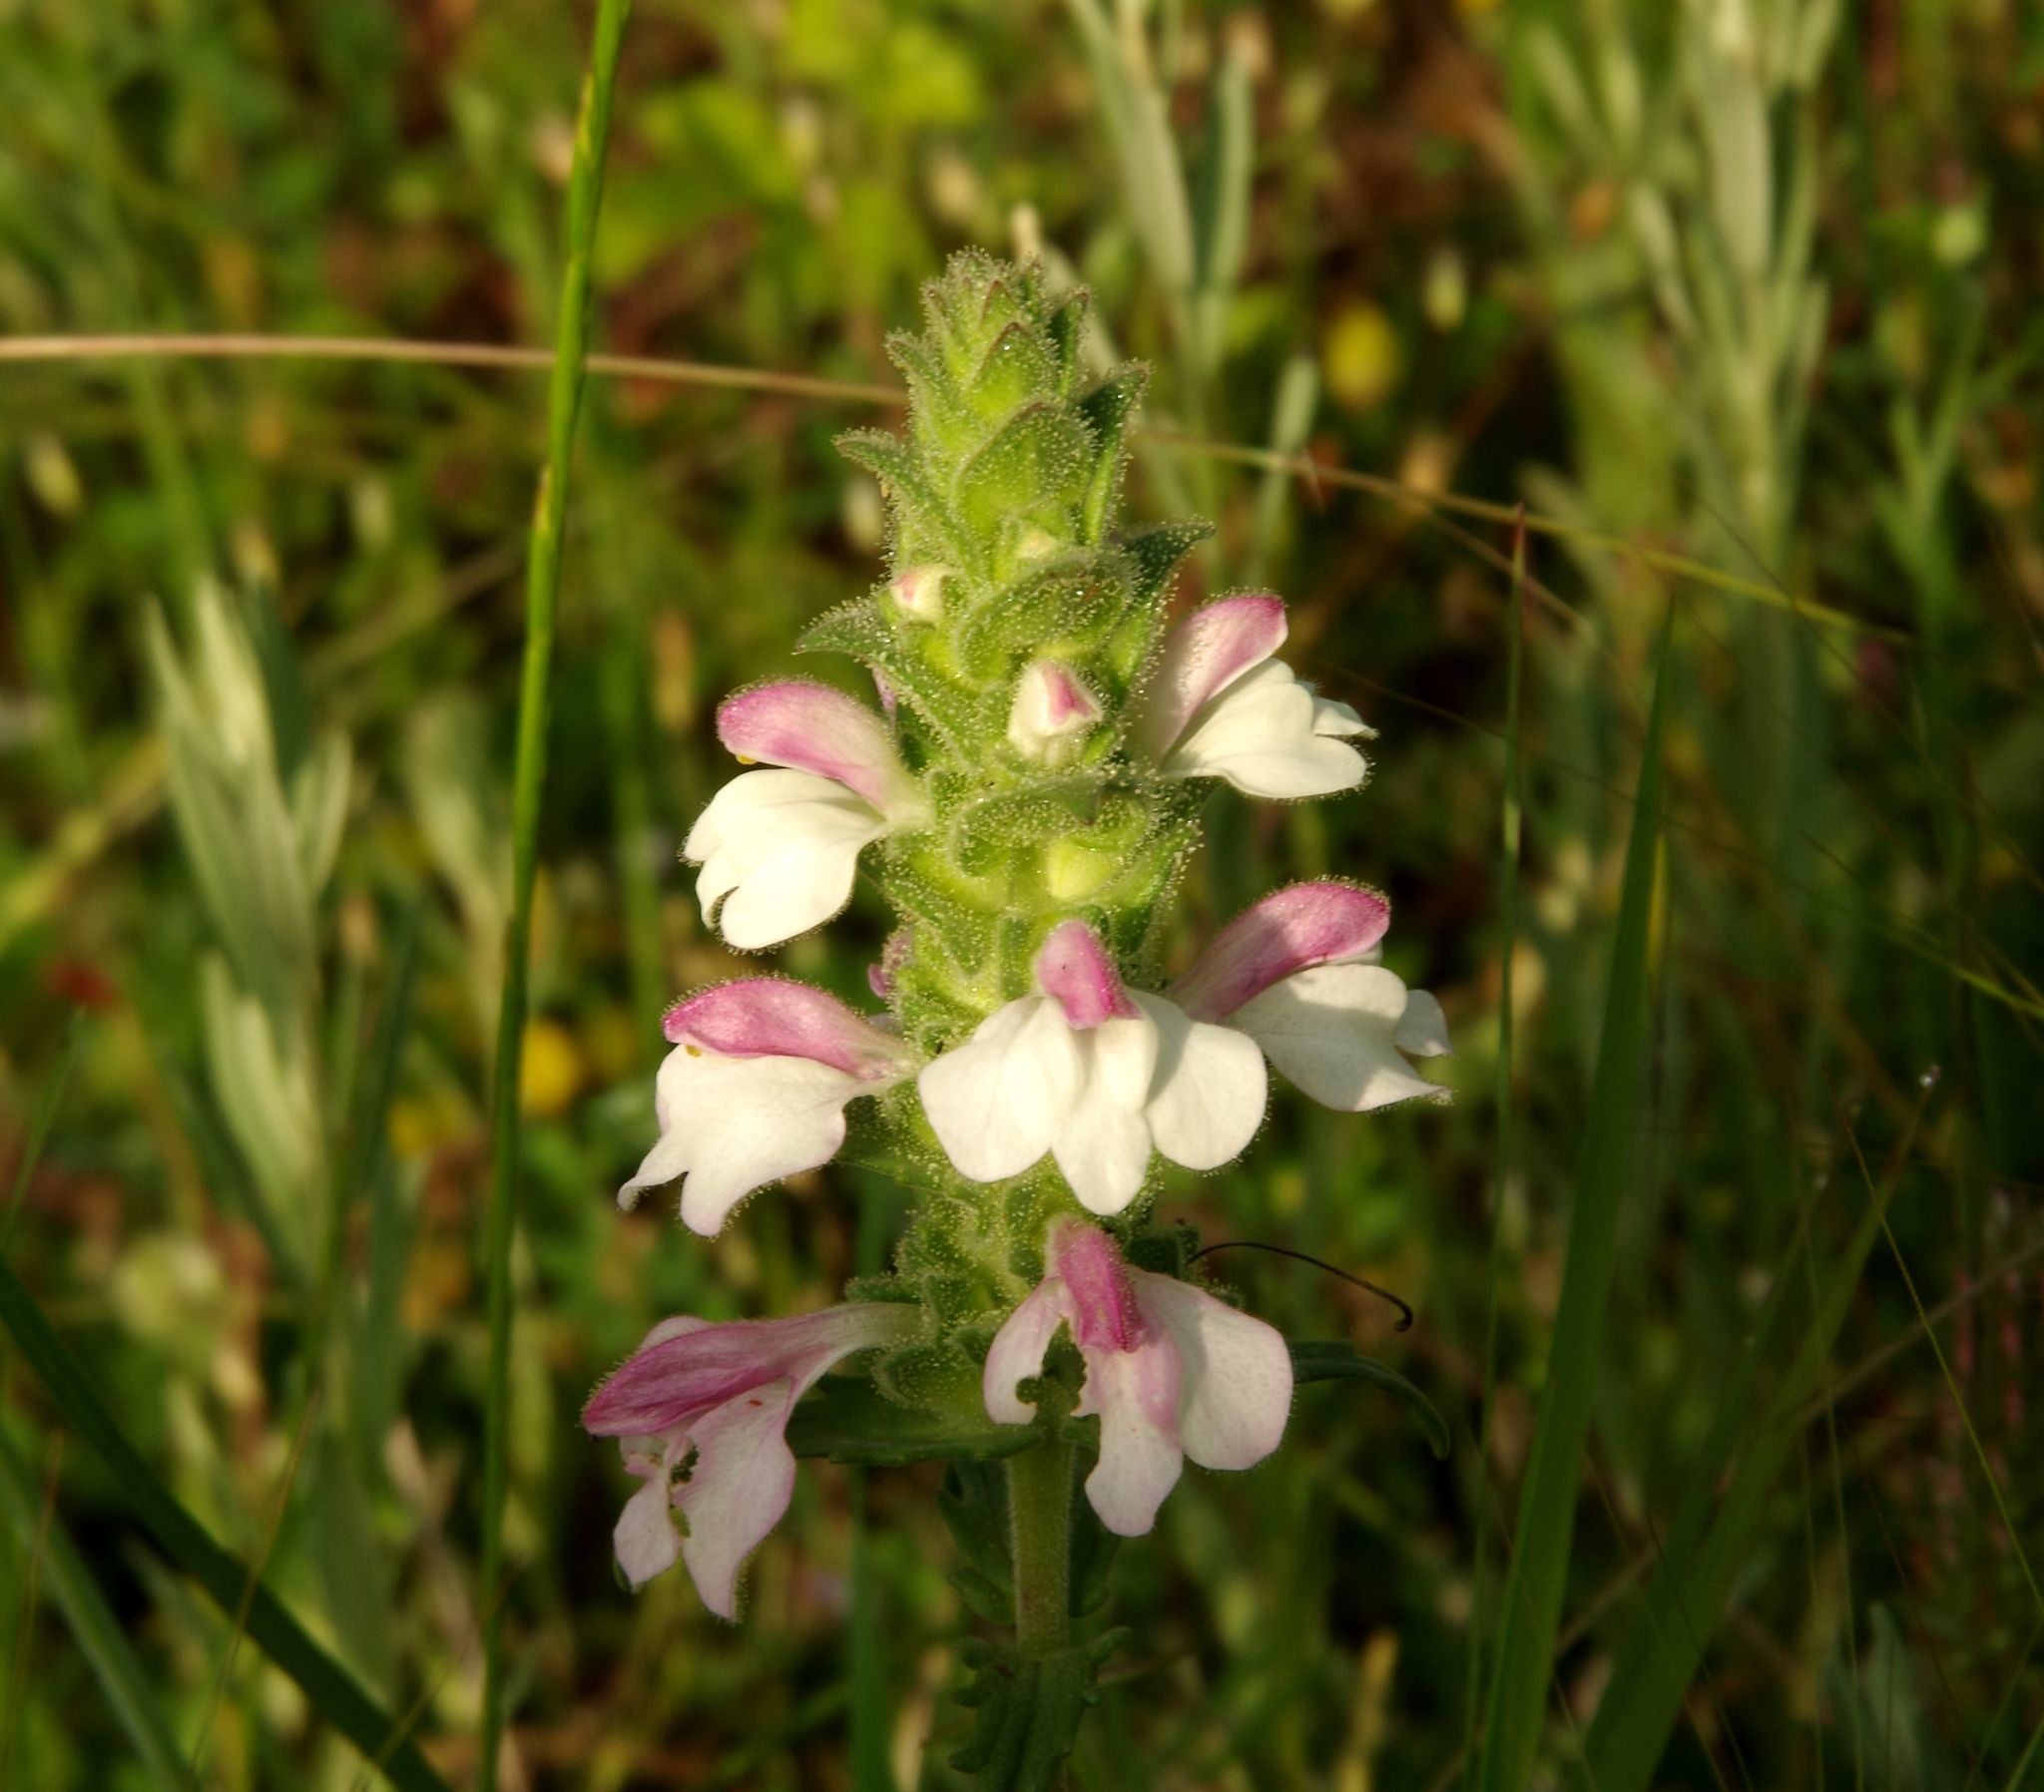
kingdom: Plantae
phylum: Tracheophyta
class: Magnoliopsida
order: Lamiales
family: Orobanchaceae
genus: Bellardia
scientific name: Bellardia trixago
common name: Mediterranean lineseed
